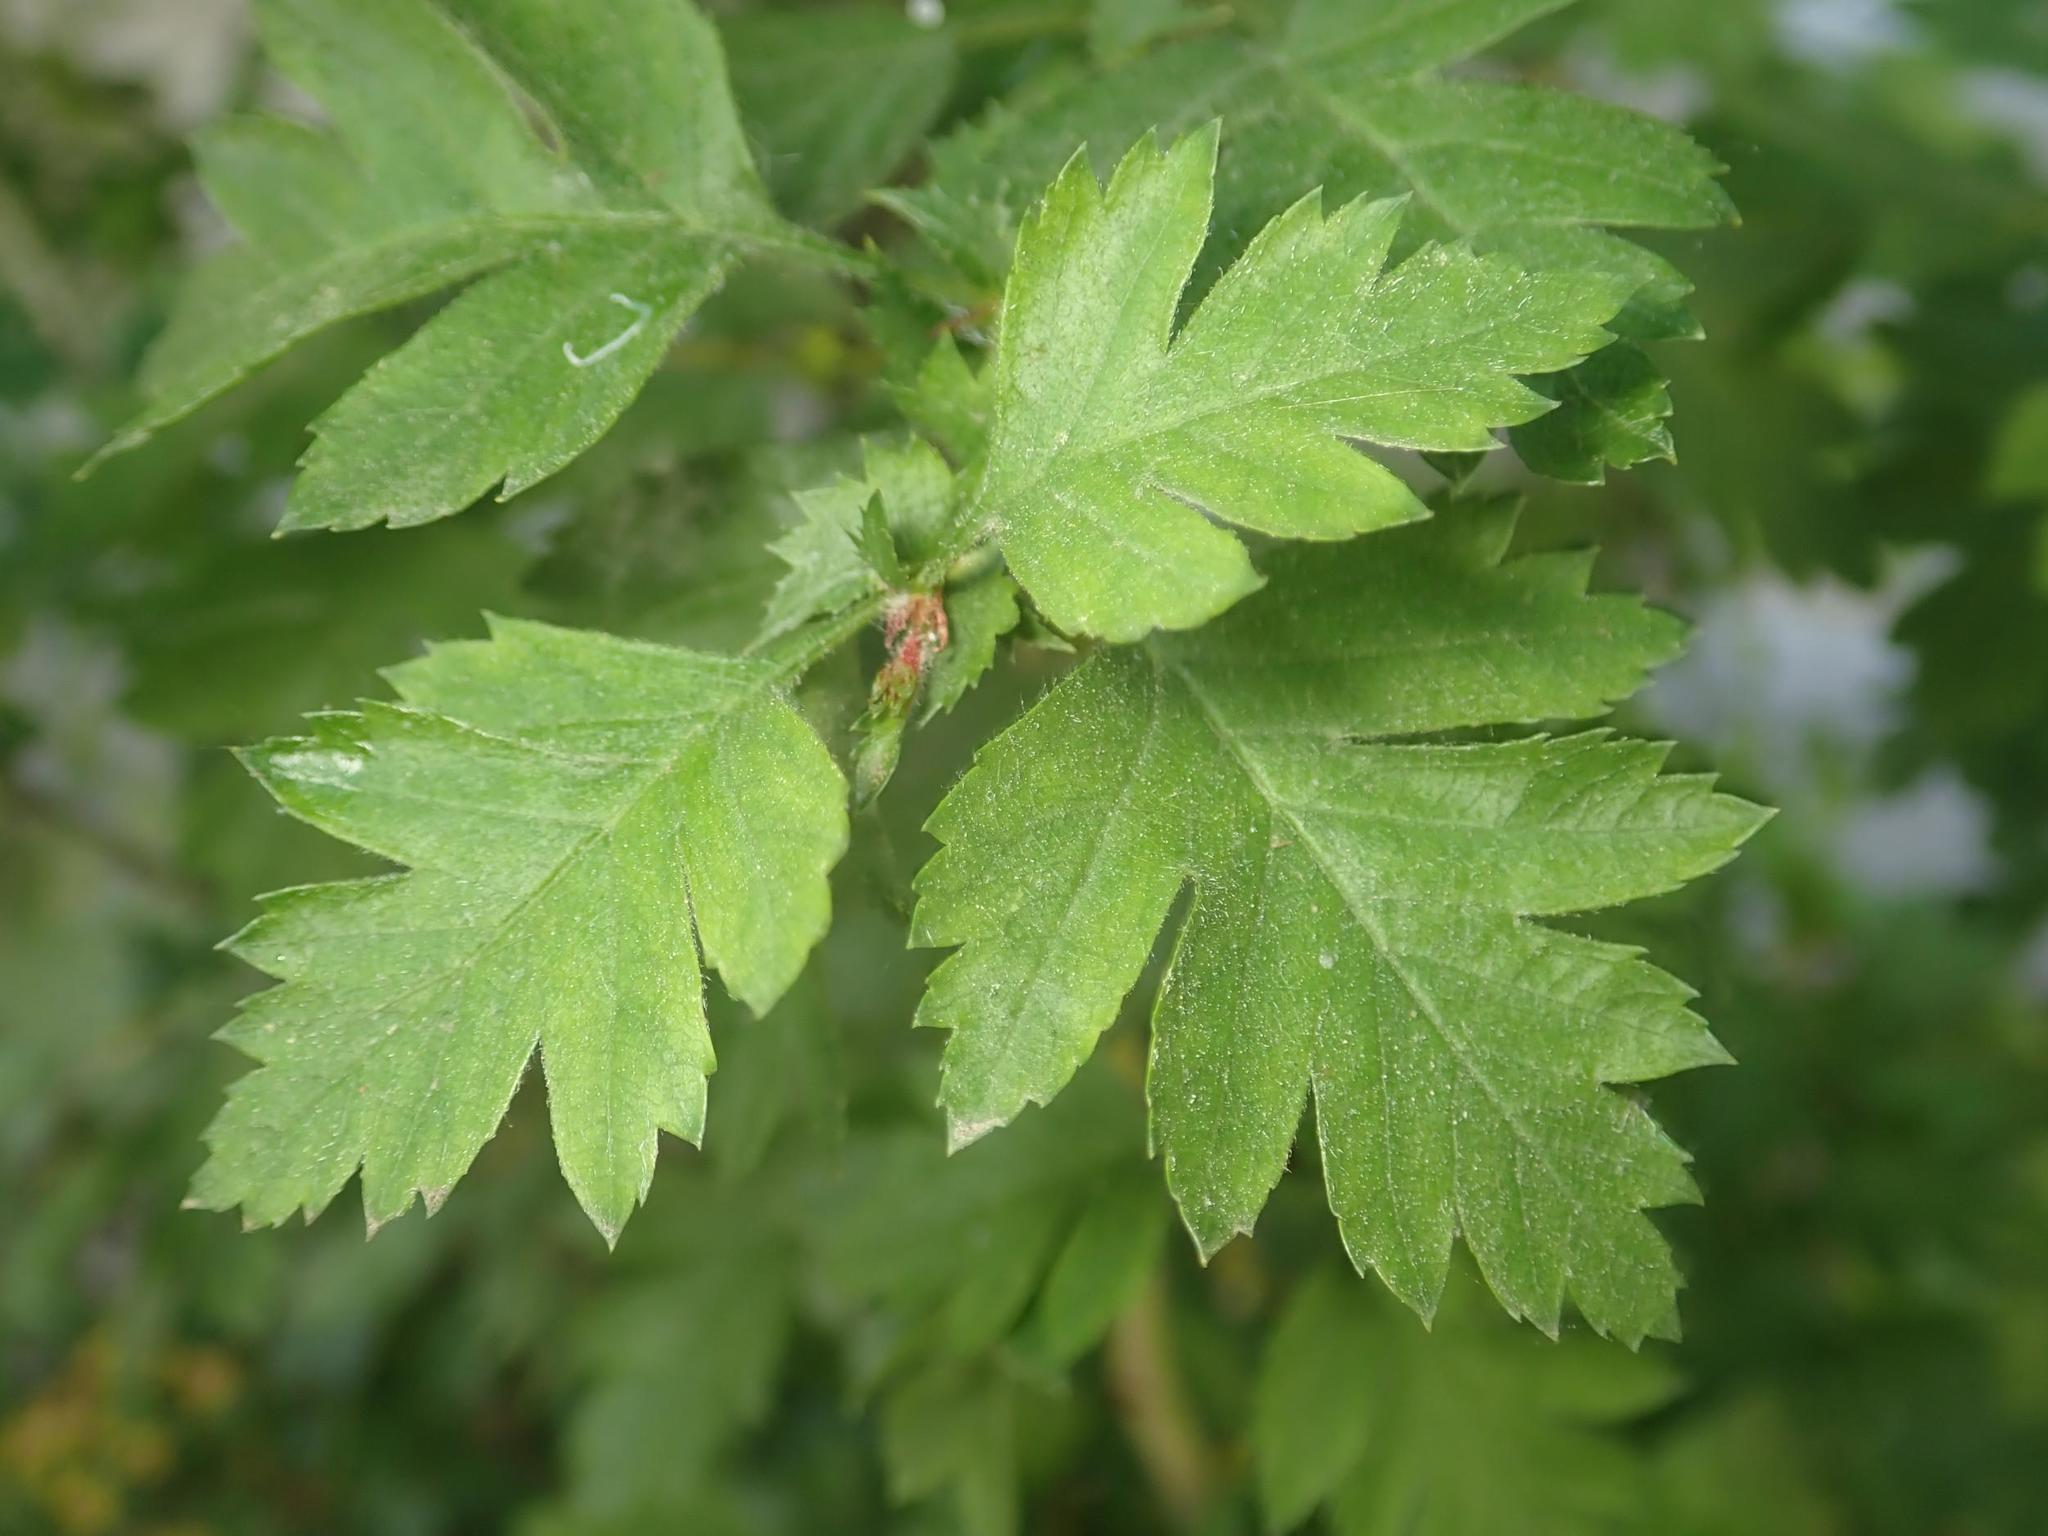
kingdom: Plantae
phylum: Tracheophyta
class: Magnoliopsida
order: Rosales
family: Rosaceae
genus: Crataegus
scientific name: Crataegus monogyna
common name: Hawthorn
